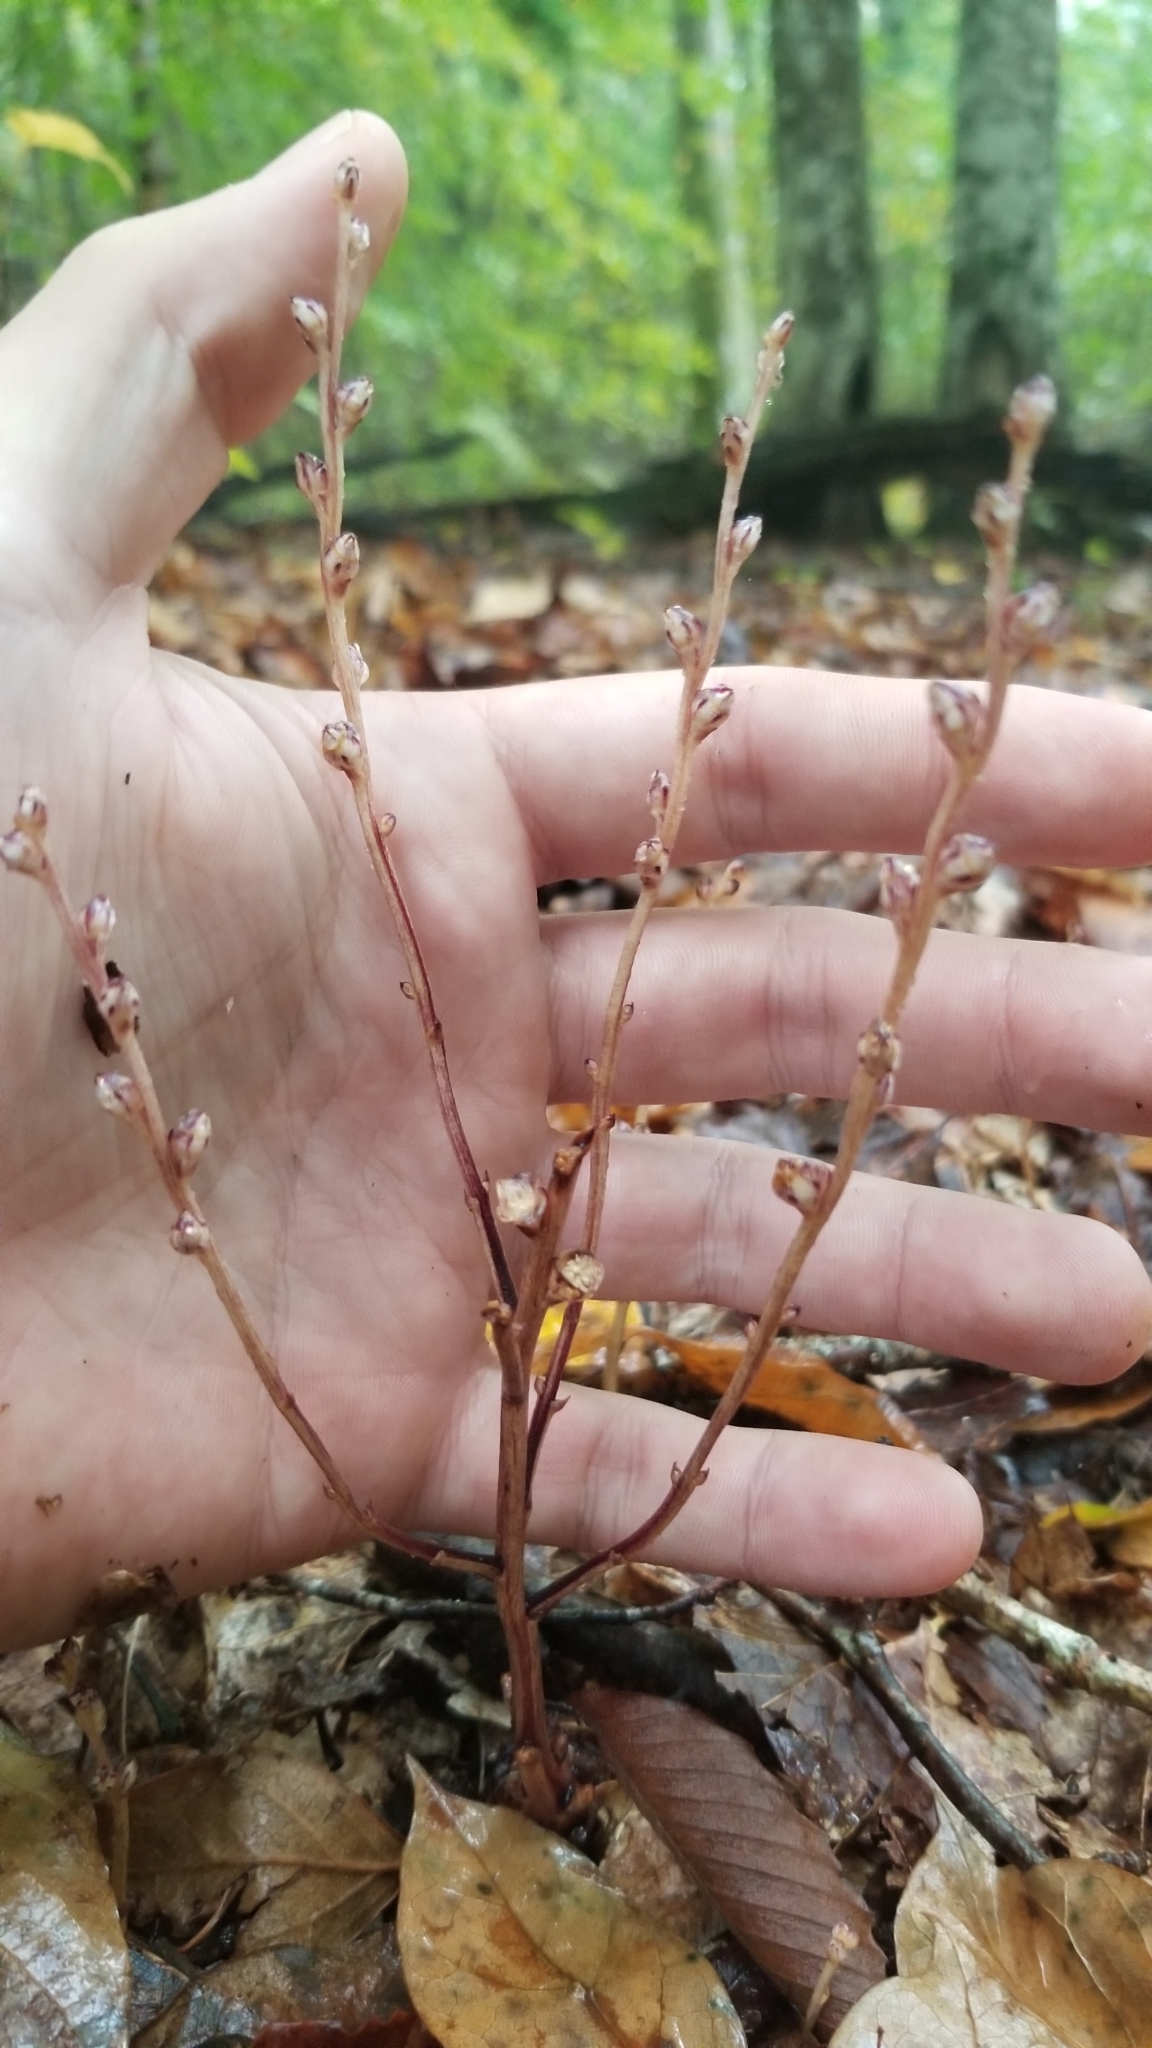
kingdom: Plantae
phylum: Tracheophyta
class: Magnoliopsida
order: Lamiales
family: Orobanchaceae
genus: Epifagus
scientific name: Epifagus virginiana
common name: Beechdrops
